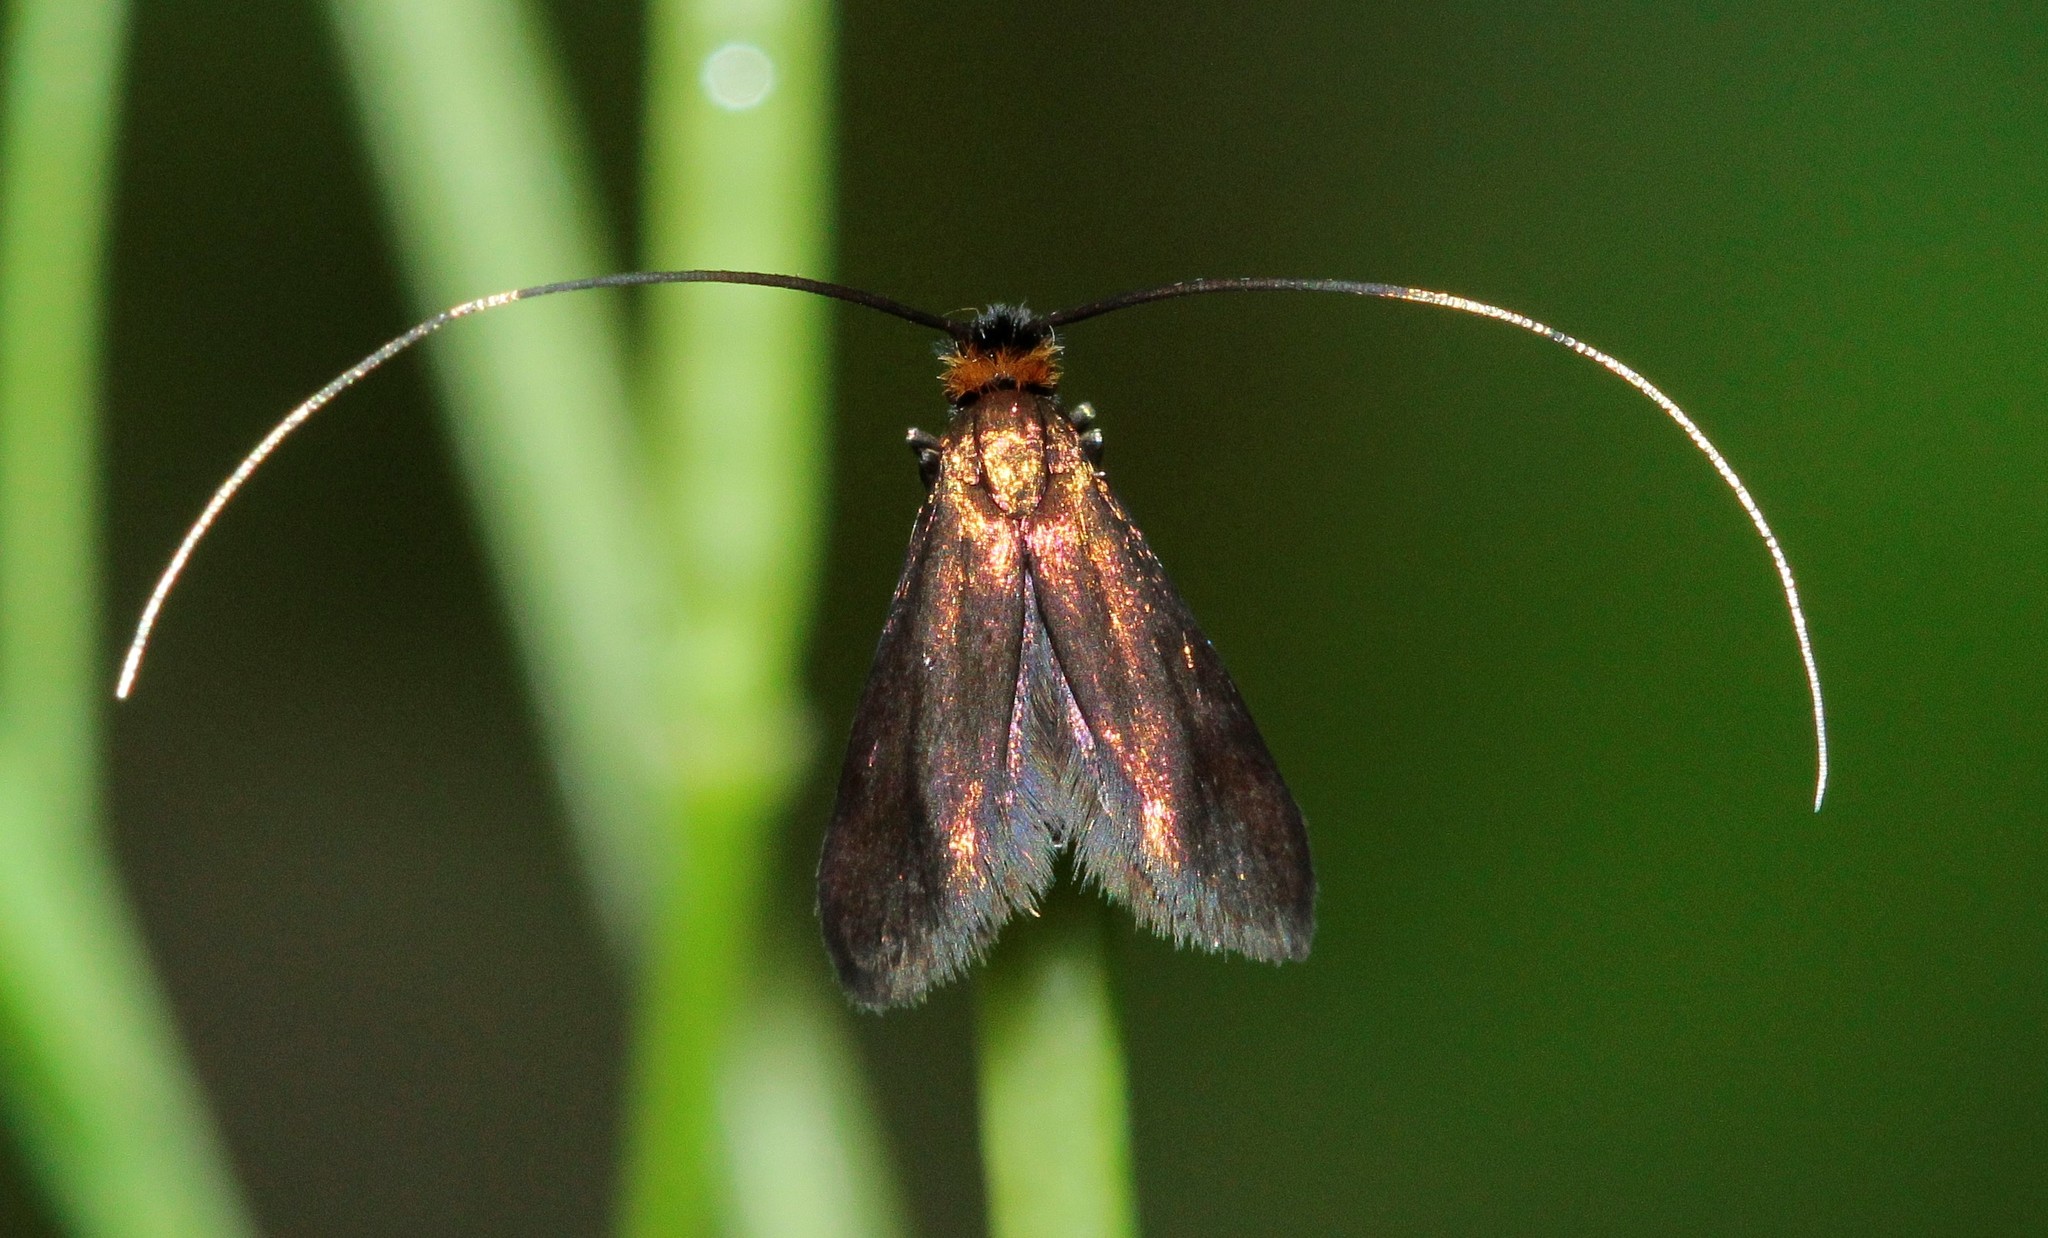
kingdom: Animalia
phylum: Arthropoda
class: Insecta
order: Lepidoptera
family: Adelidae
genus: Cauchas
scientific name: Cauchas rufimitrella
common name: Meadow long-horn
